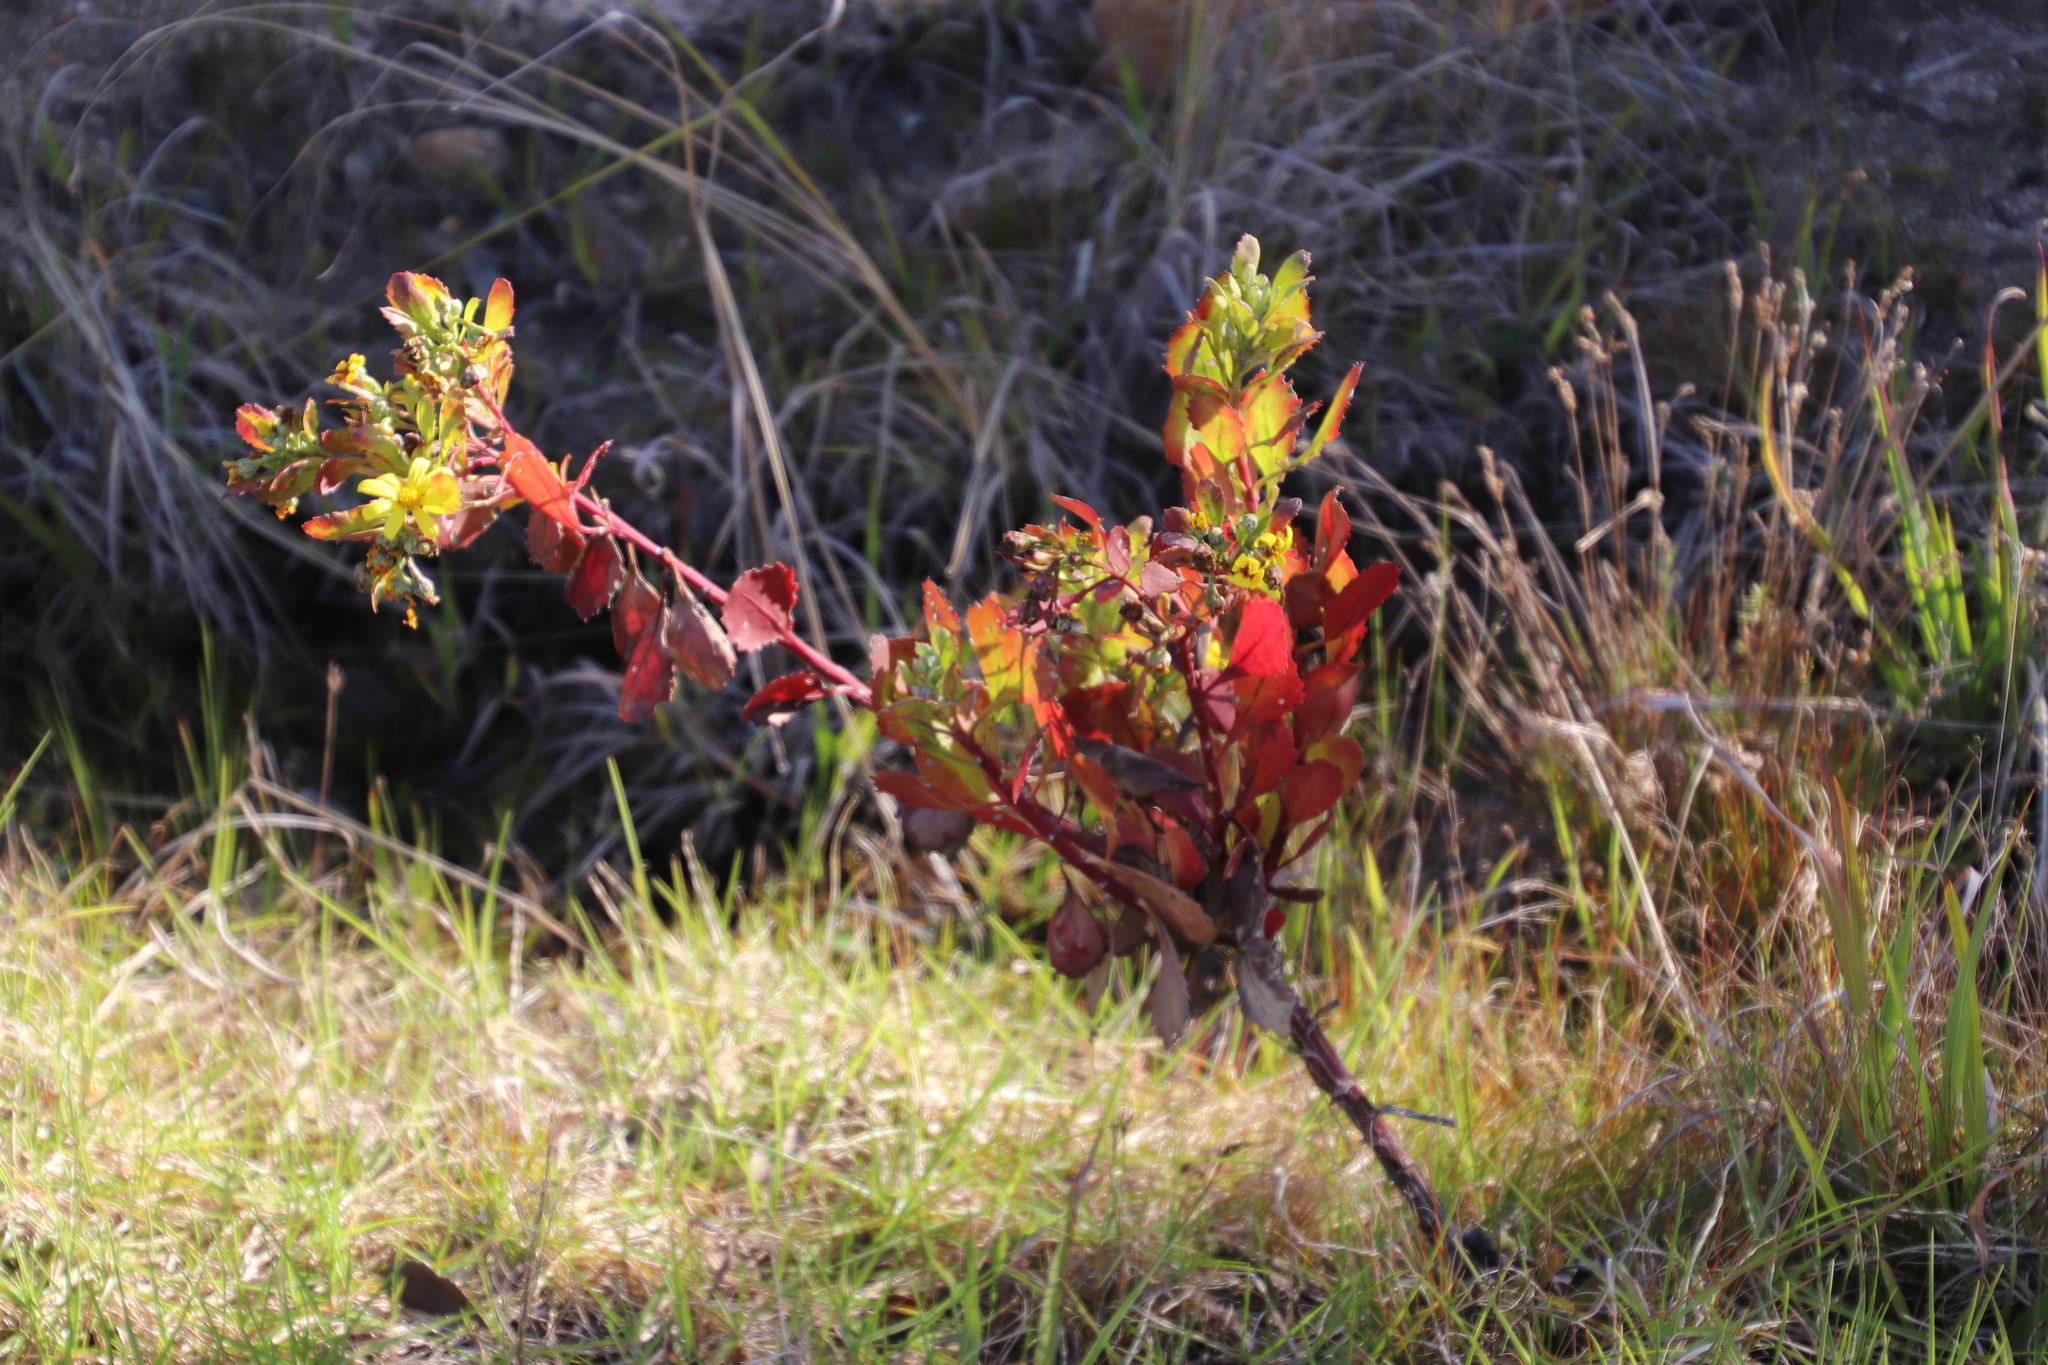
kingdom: Plantae
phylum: Tracheophyta
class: Magnoliopsida
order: Asterales
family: Asteraceae
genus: Osteospermum
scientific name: Osteospermum moniliferum
